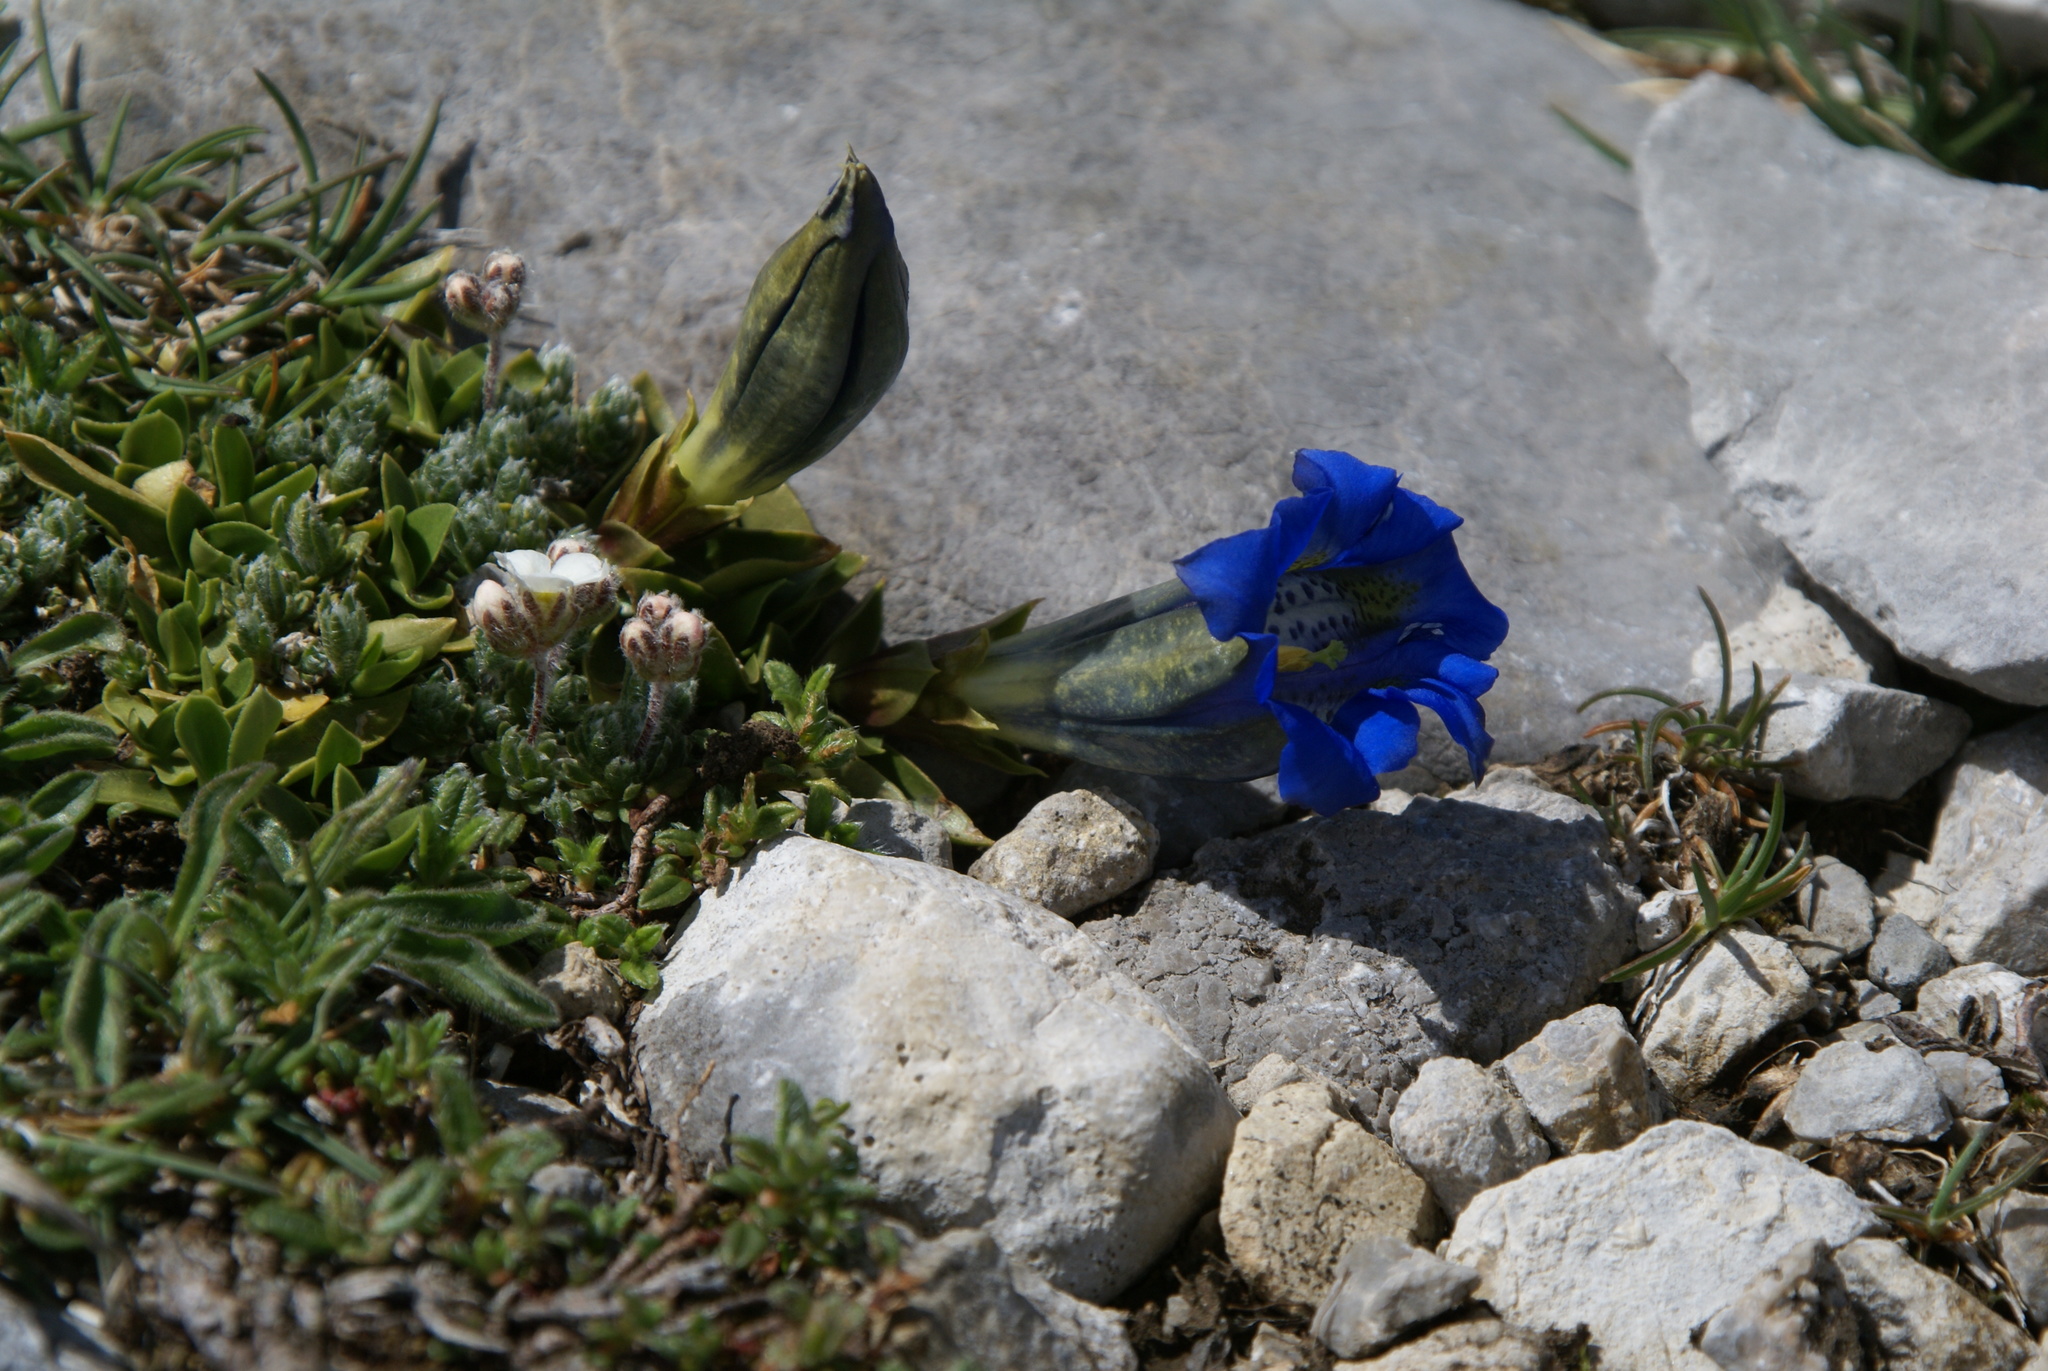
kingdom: Plantae
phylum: Tracheophyta
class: Magnoliopsida
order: Gentianales
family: Gentianaceae
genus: Gentiana
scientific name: Gentiana alpina
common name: Southern gentian
